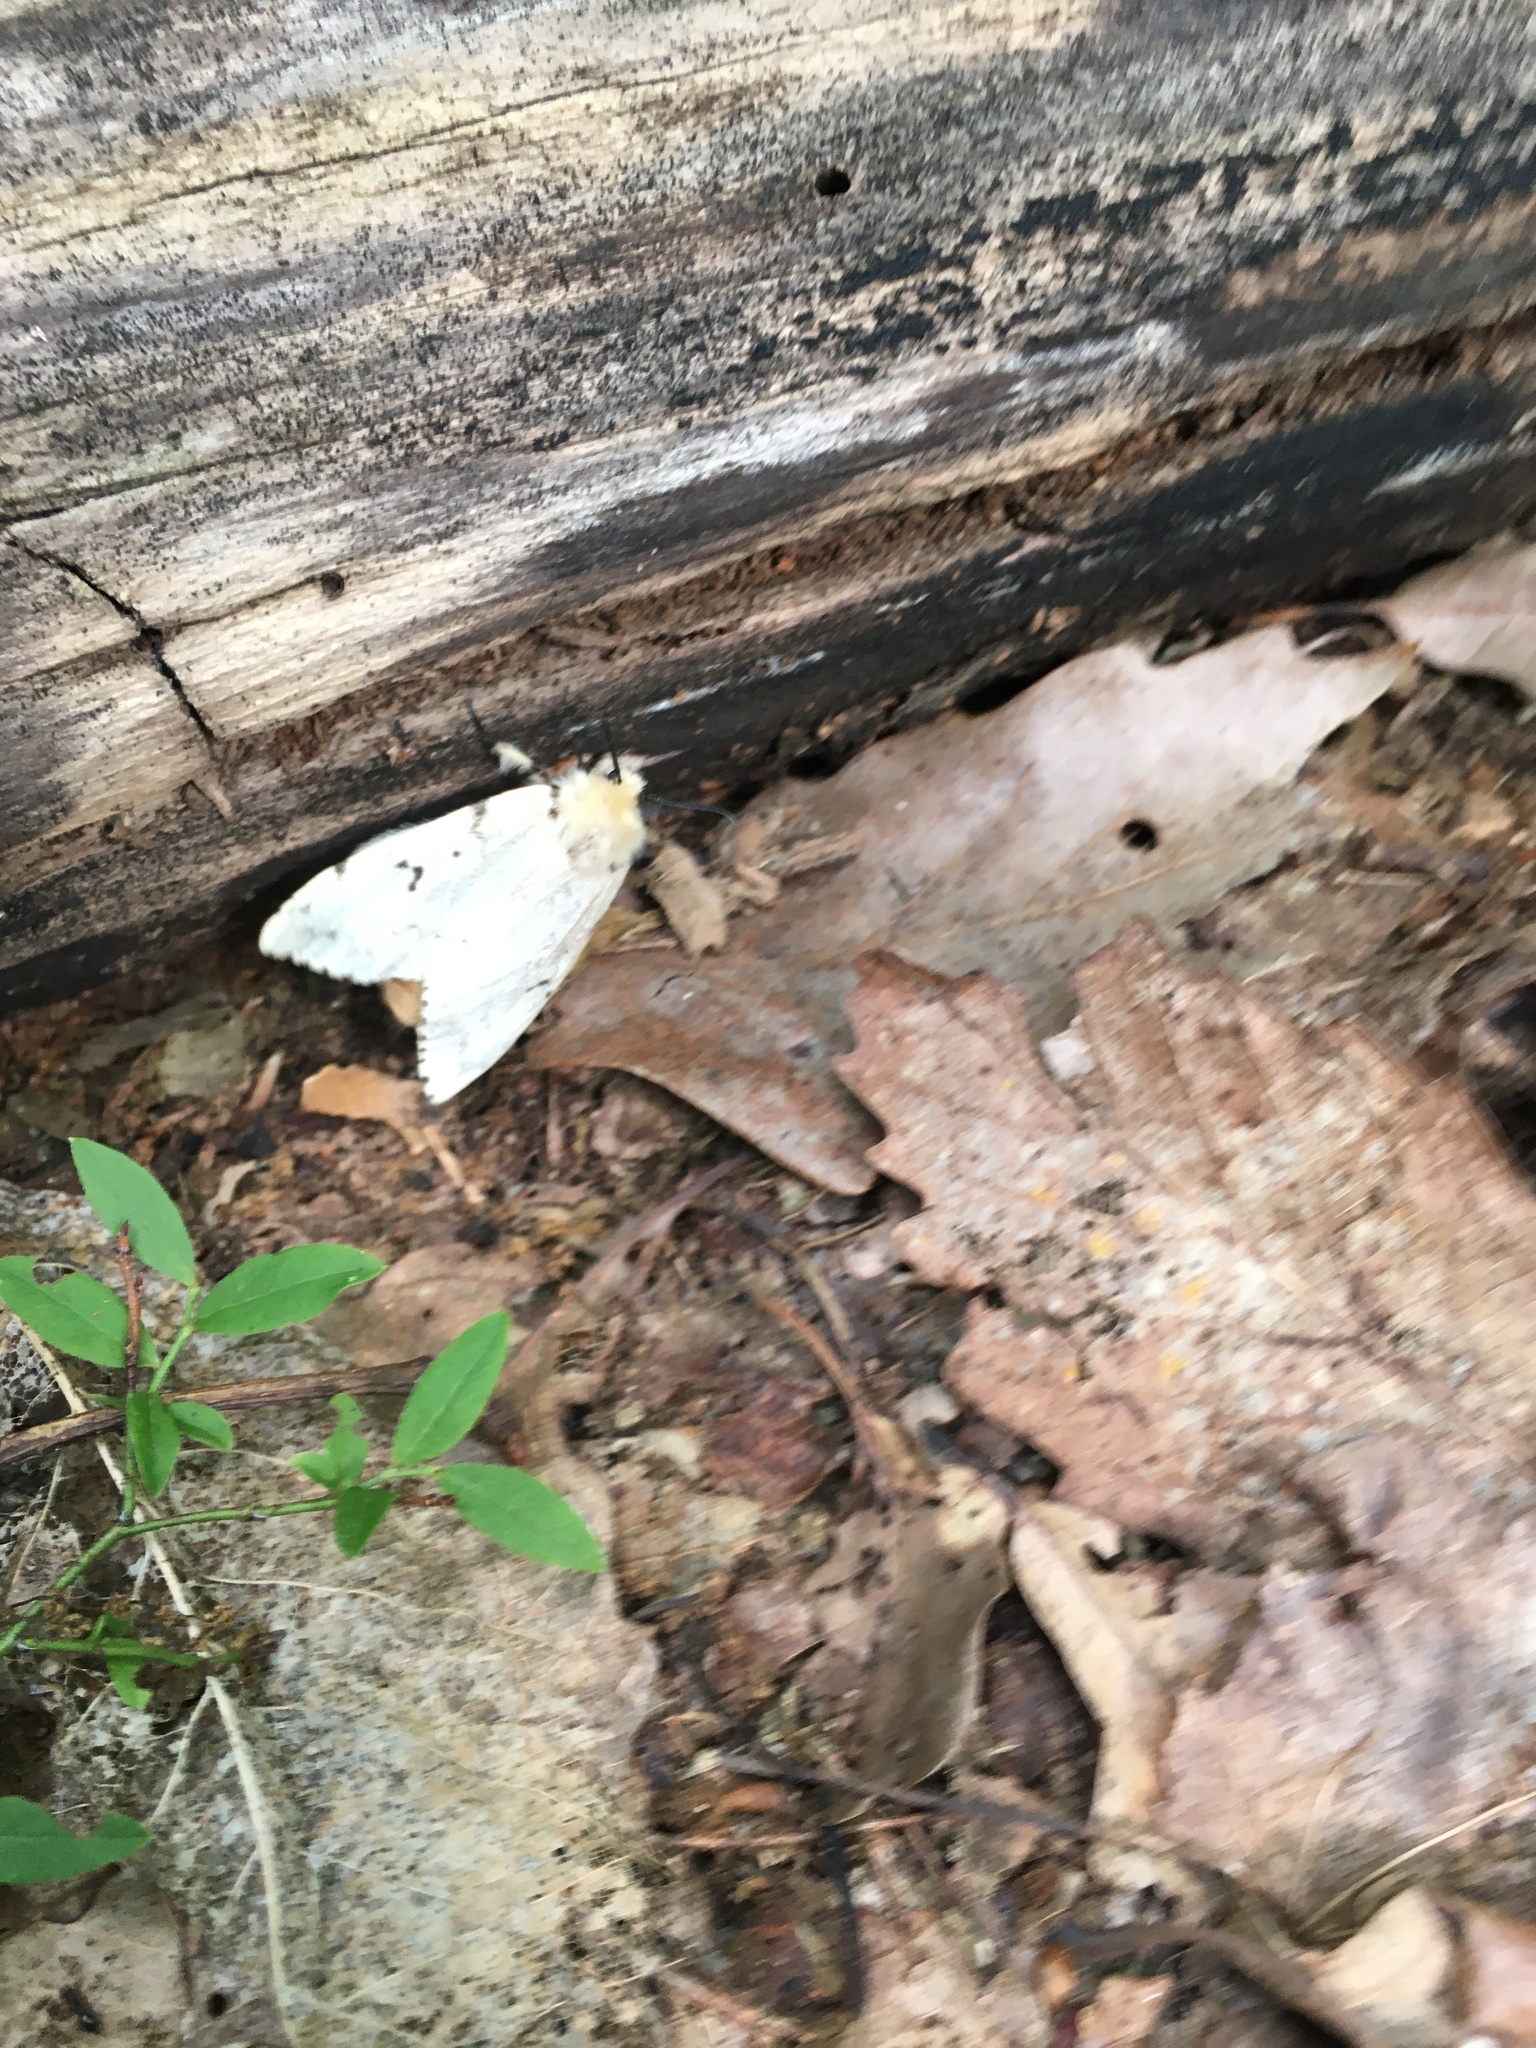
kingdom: Animalia
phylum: Arthropoda
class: Insecta
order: Lepidoptera
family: Erebidae
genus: Lymantria
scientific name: Lymantria dispar
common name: Gypsy moth
